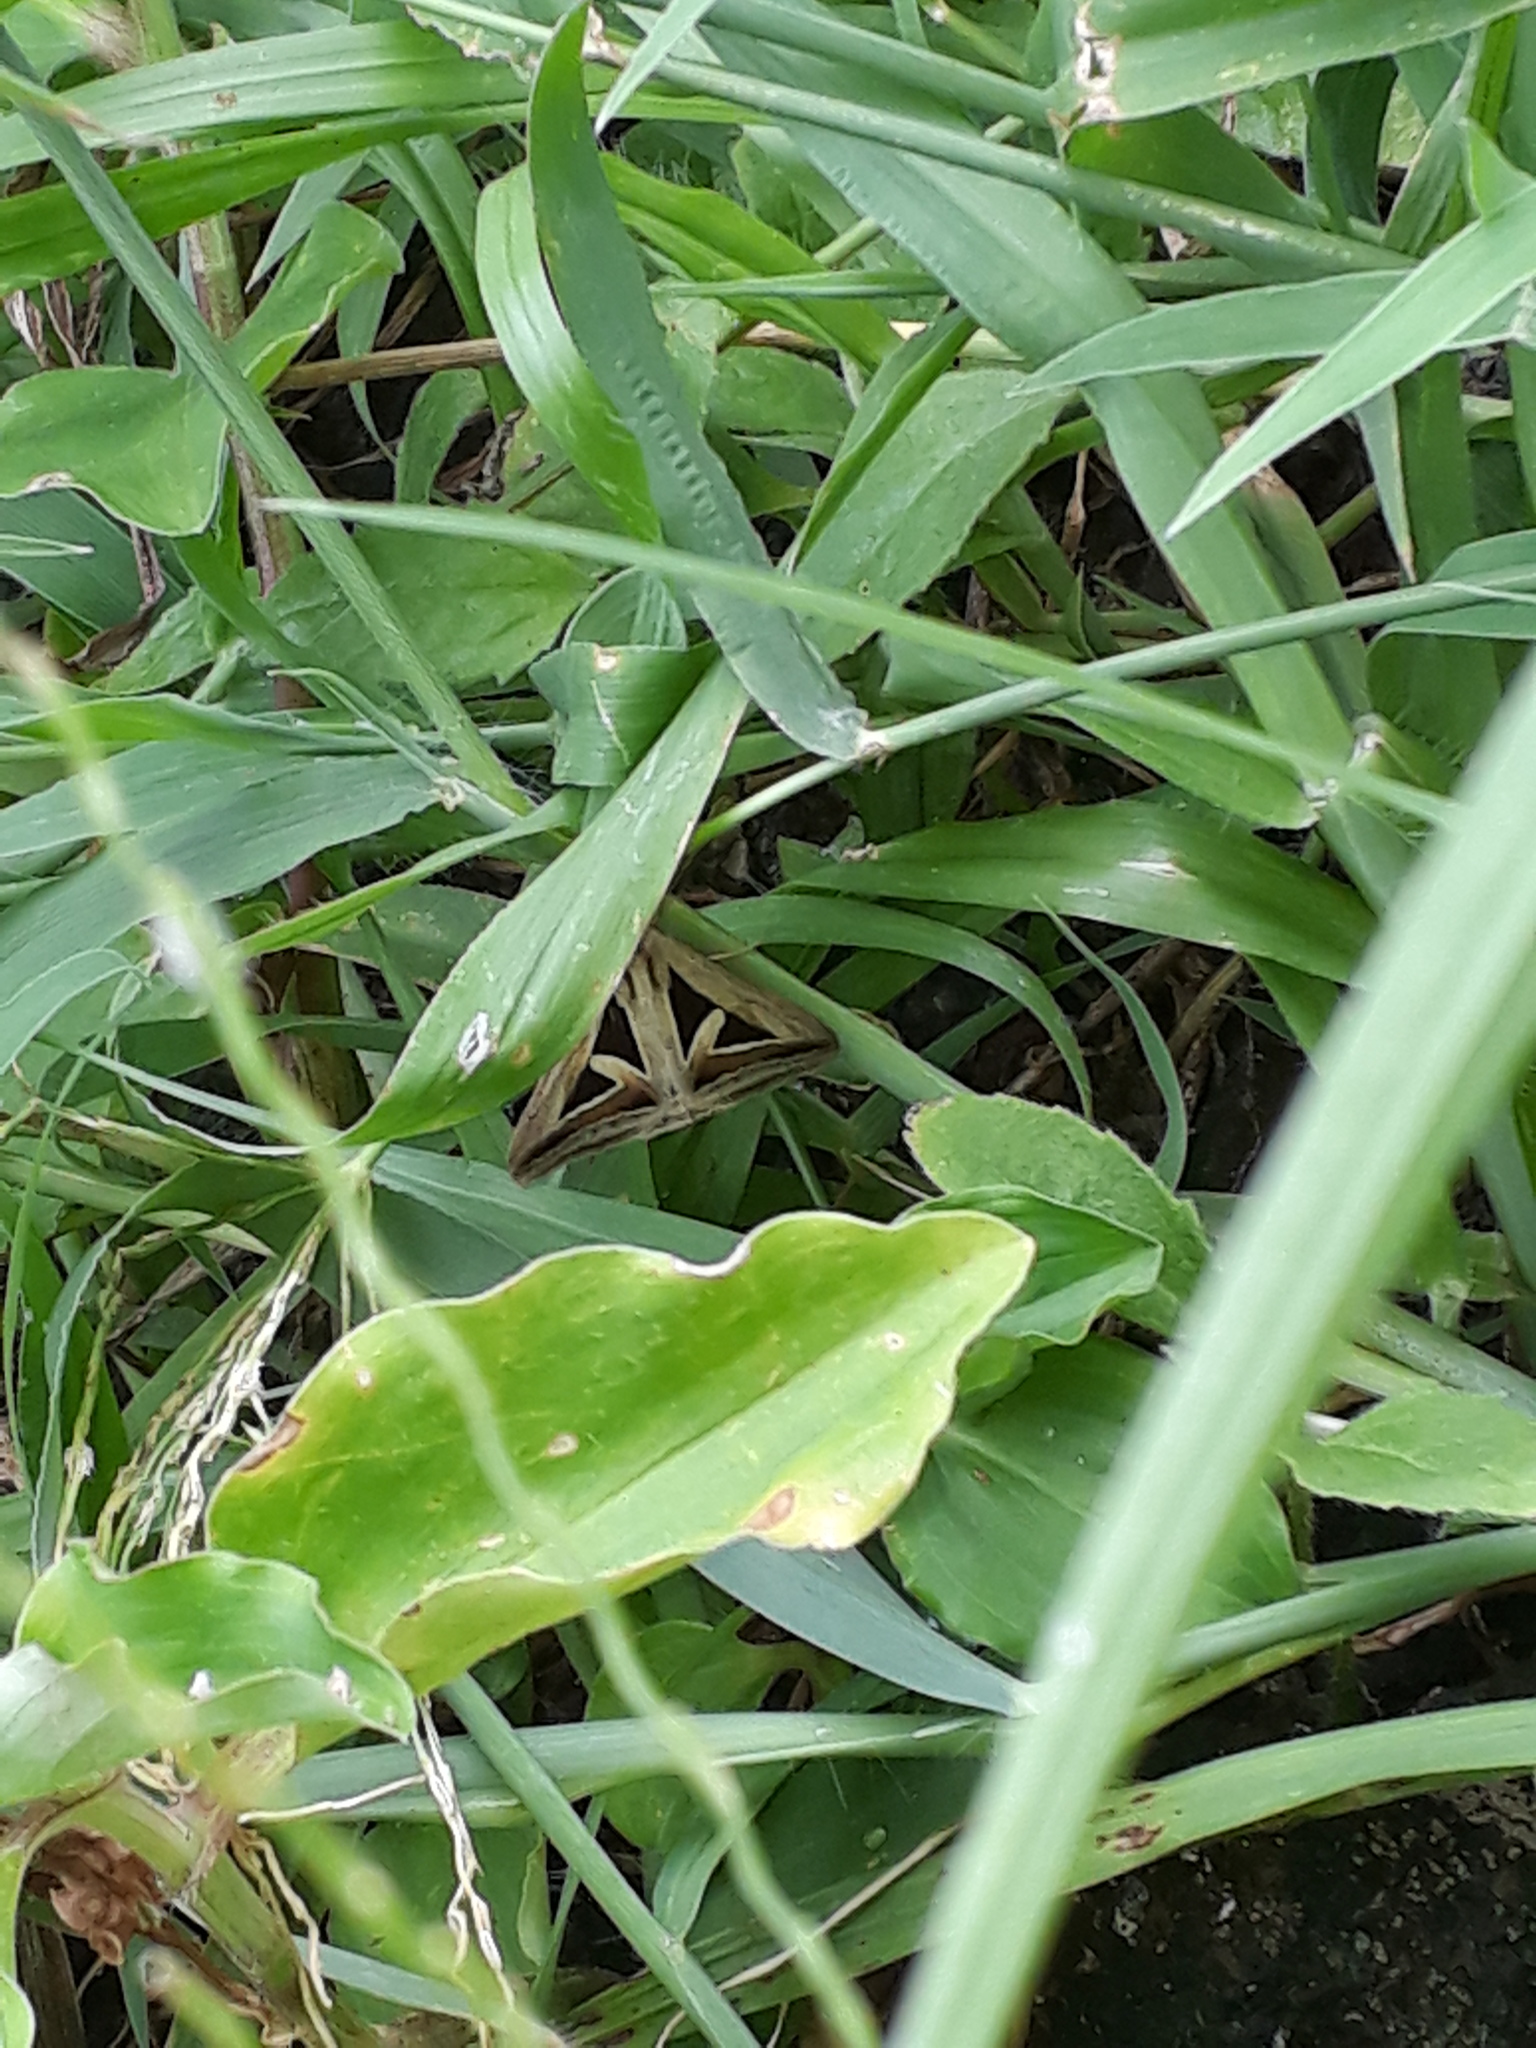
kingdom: Animalia
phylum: Arthropoda
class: Insecta
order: Lepidoptera
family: Erebidae
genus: Trigonodes
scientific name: Trigonodes hyppasia
